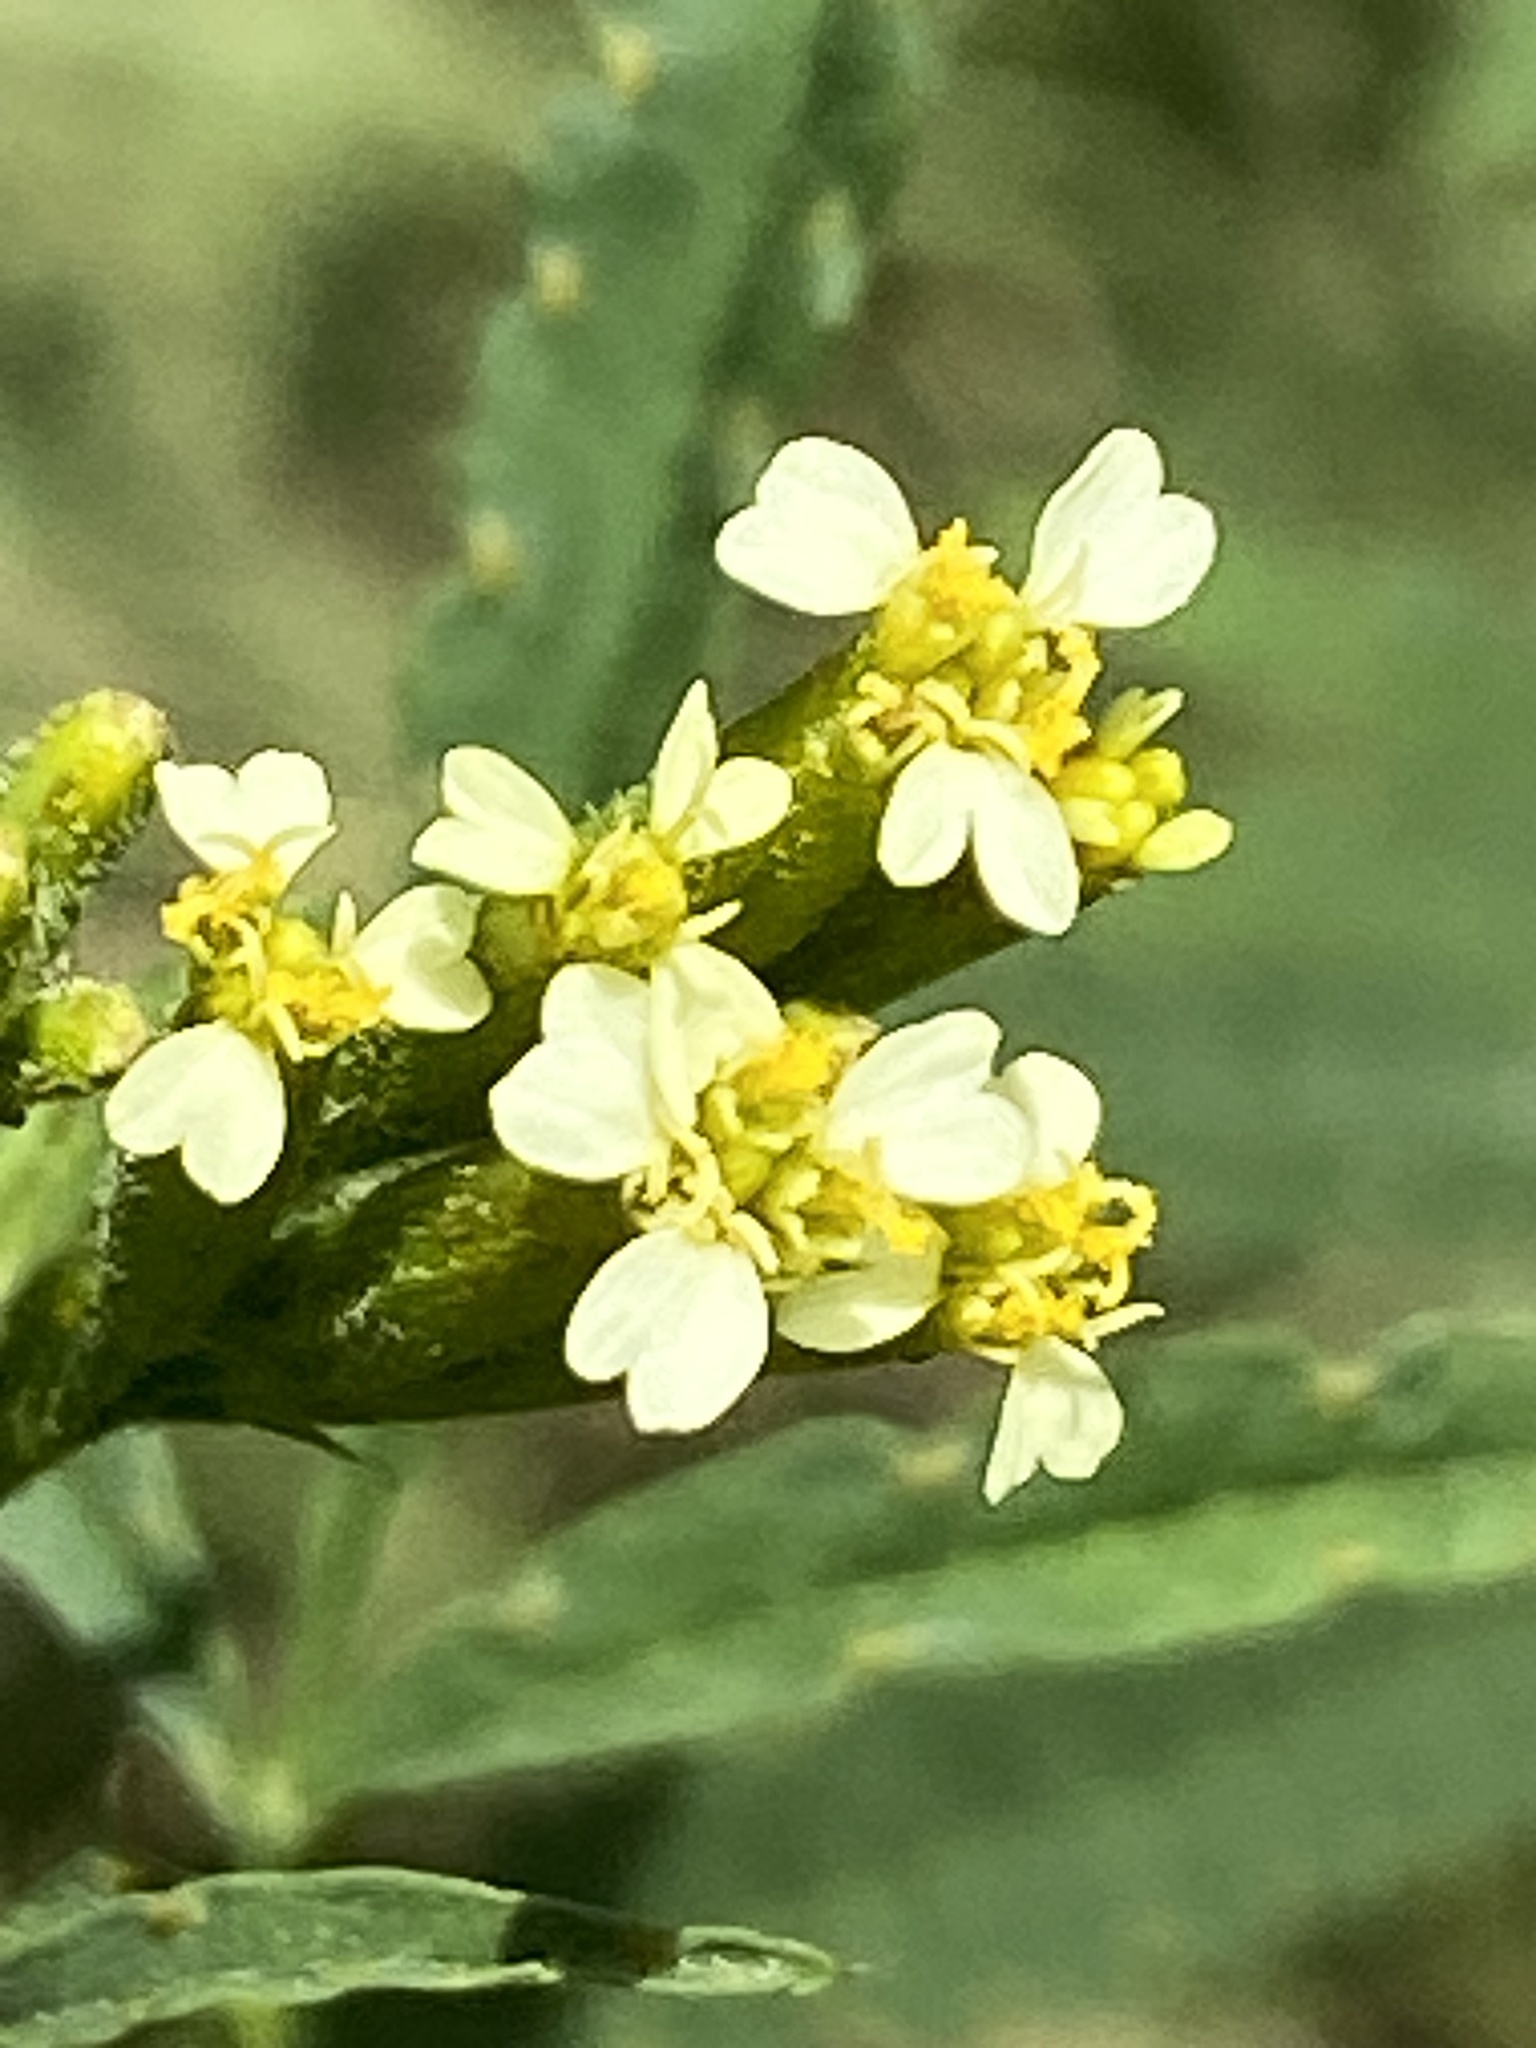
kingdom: Plantae
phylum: Tracheophyta
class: Magnoliopsida
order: Asterales
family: Asteraceae
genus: Tagetes
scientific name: Tagetes minuta
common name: Muster john henry
